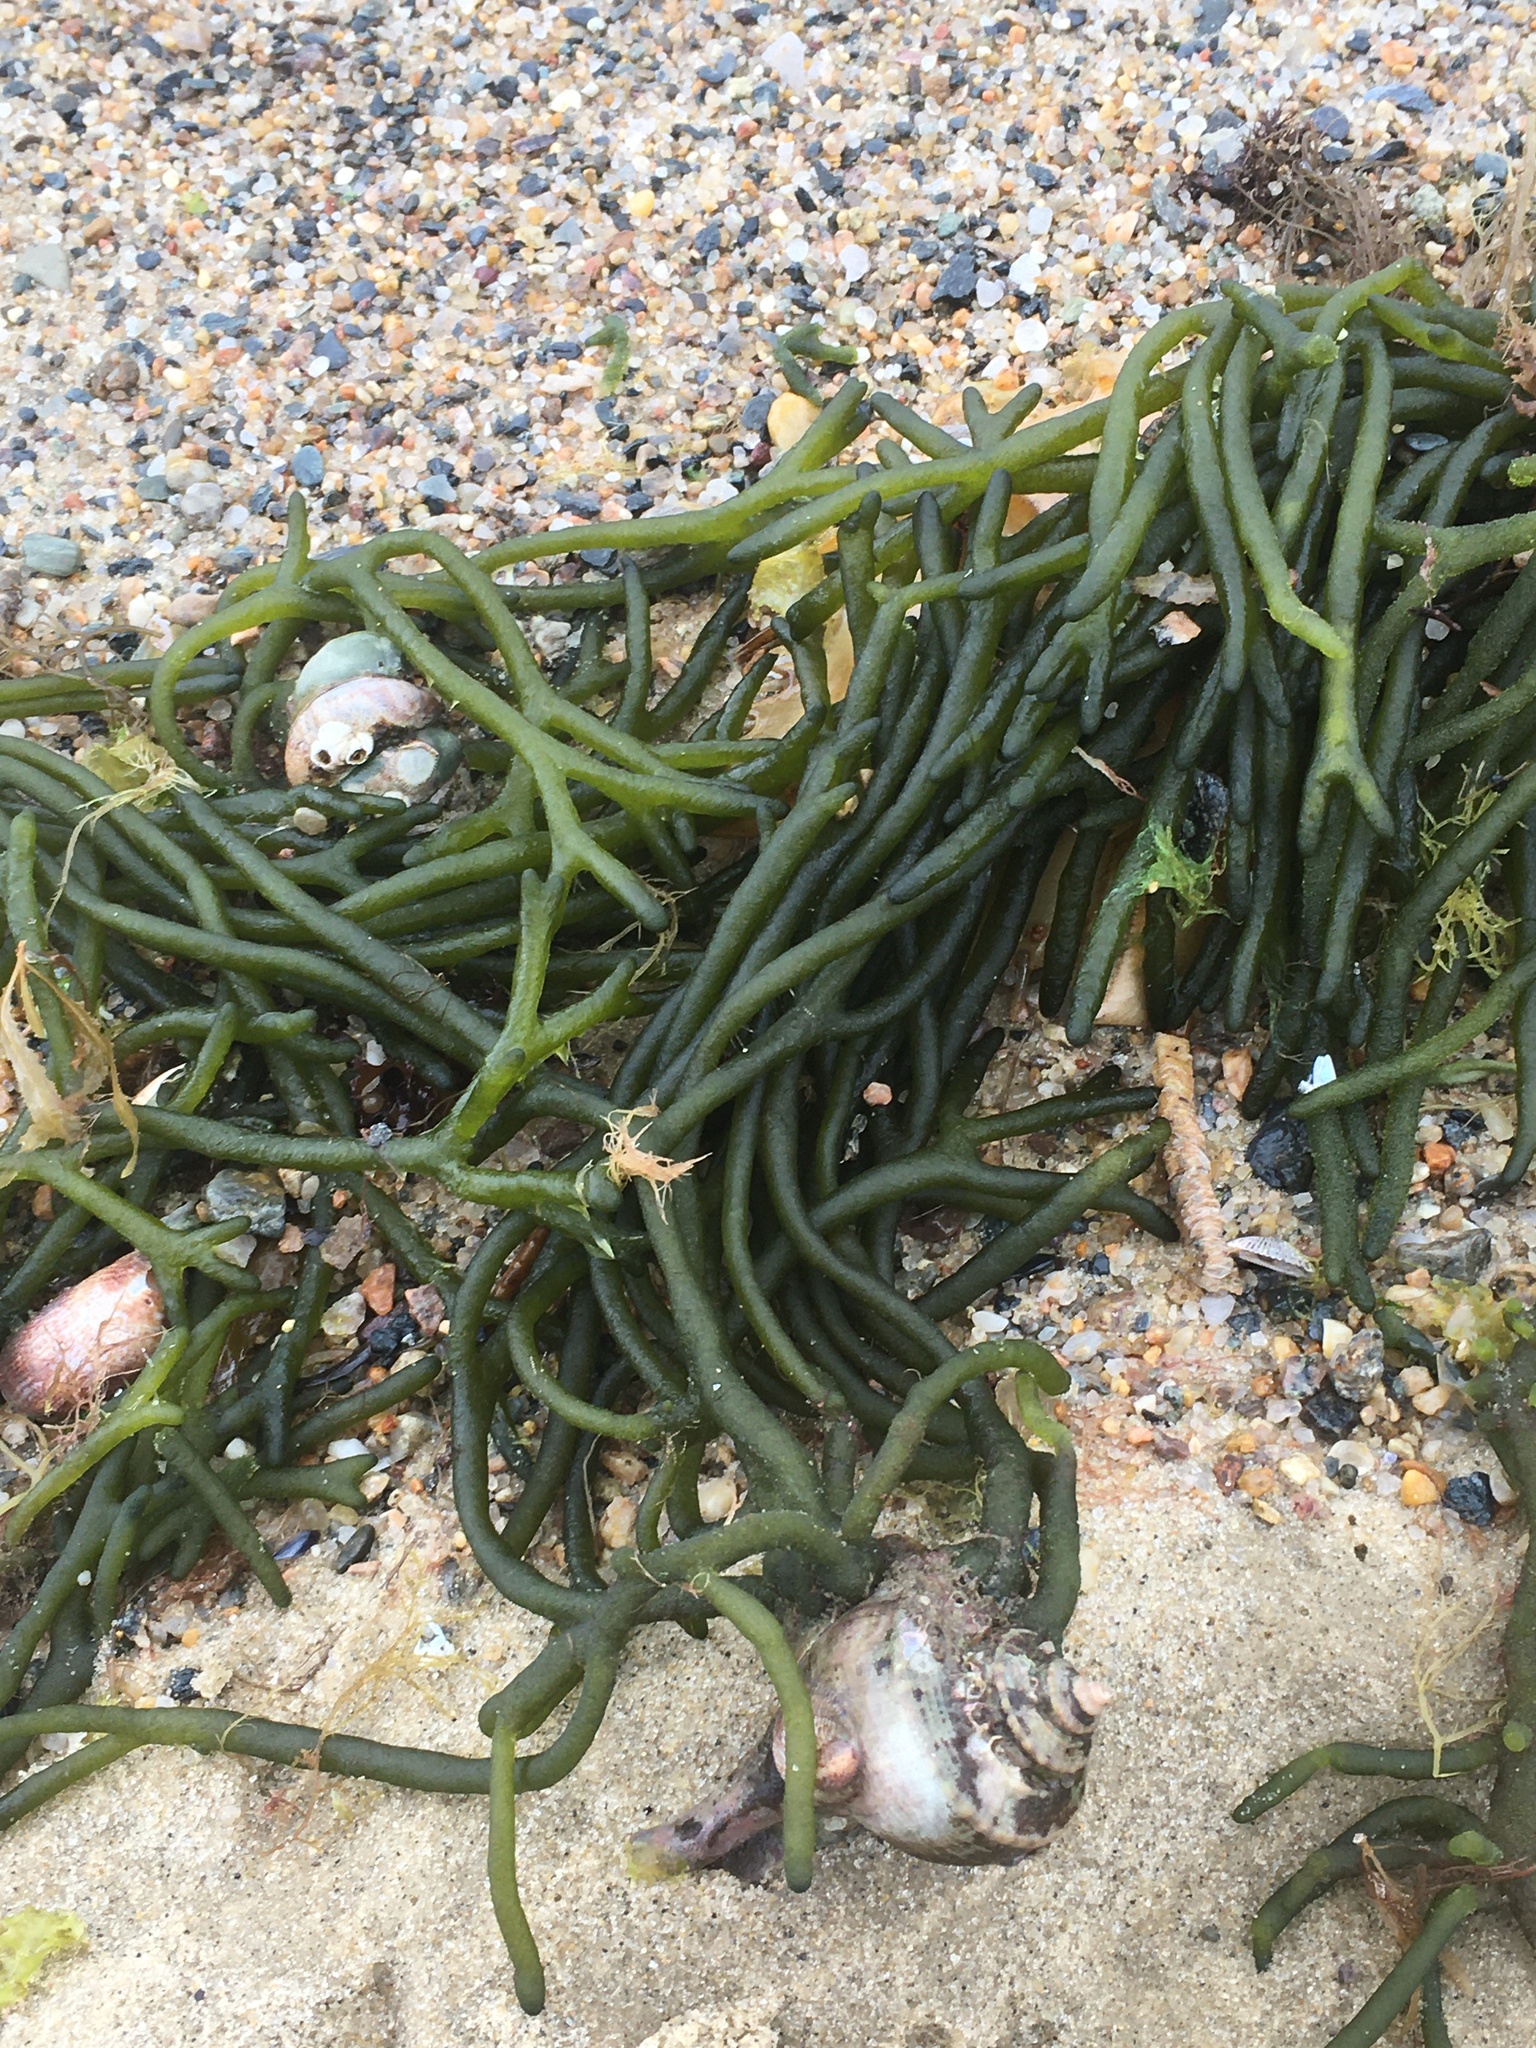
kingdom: Plantae
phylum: Chlorophyta
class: Ulvophyceae
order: Bryopsidales
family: Codiaceae
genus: Codium
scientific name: Codium fragile
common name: Dead man's fingers
